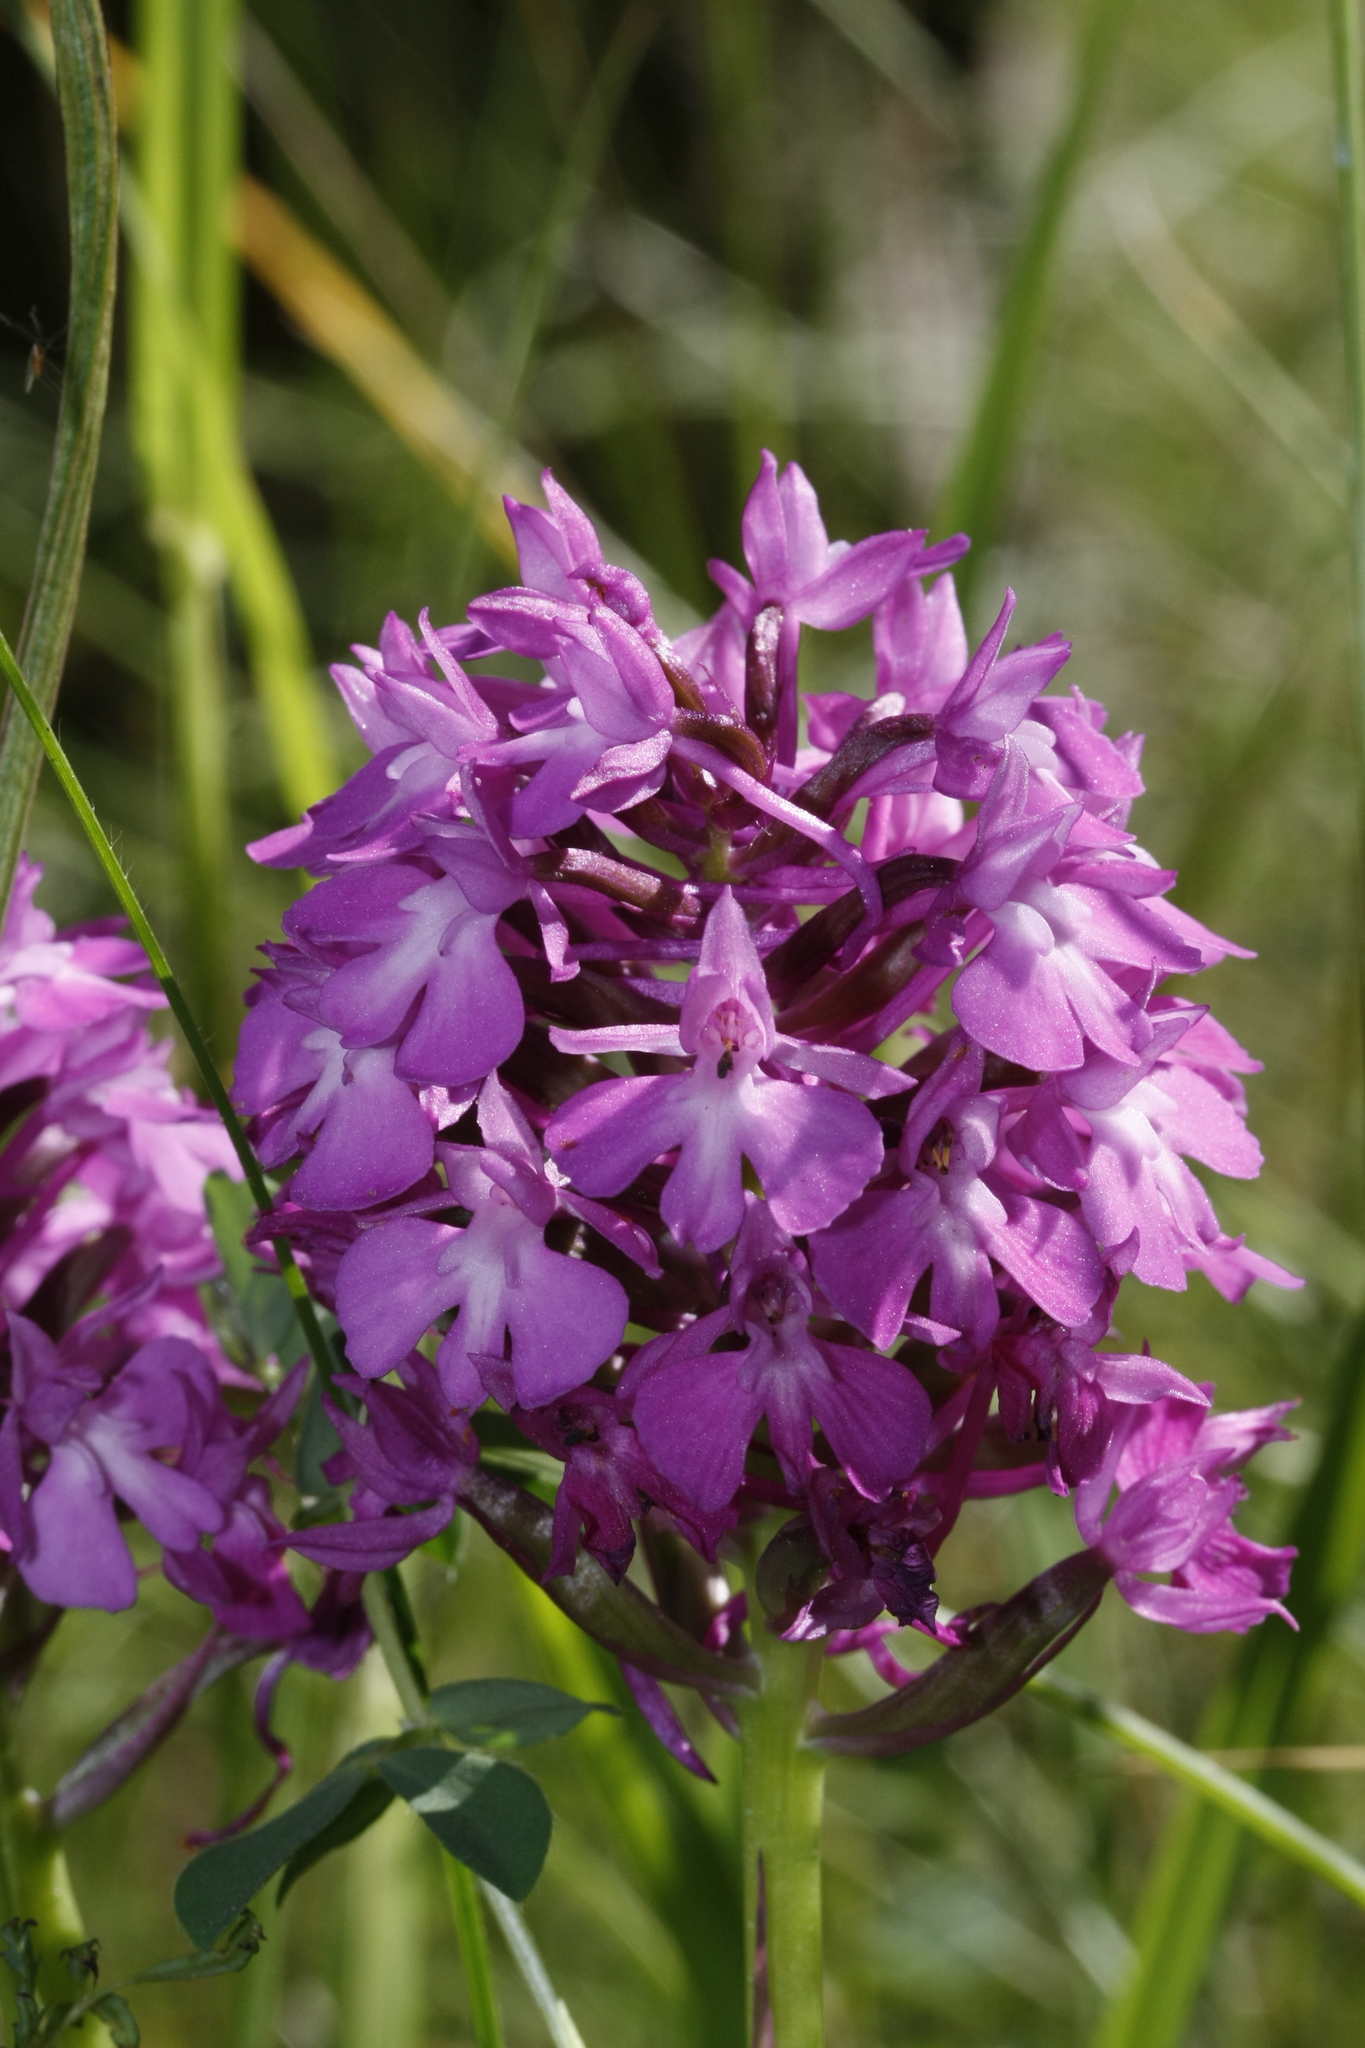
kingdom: Plantae
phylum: Tracheophyta
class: Liliopsida
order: Asparagales
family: Orchidaceae
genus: Anacamptis
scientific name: Anacamptis pyramidalis
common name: Pyramidal orchid
